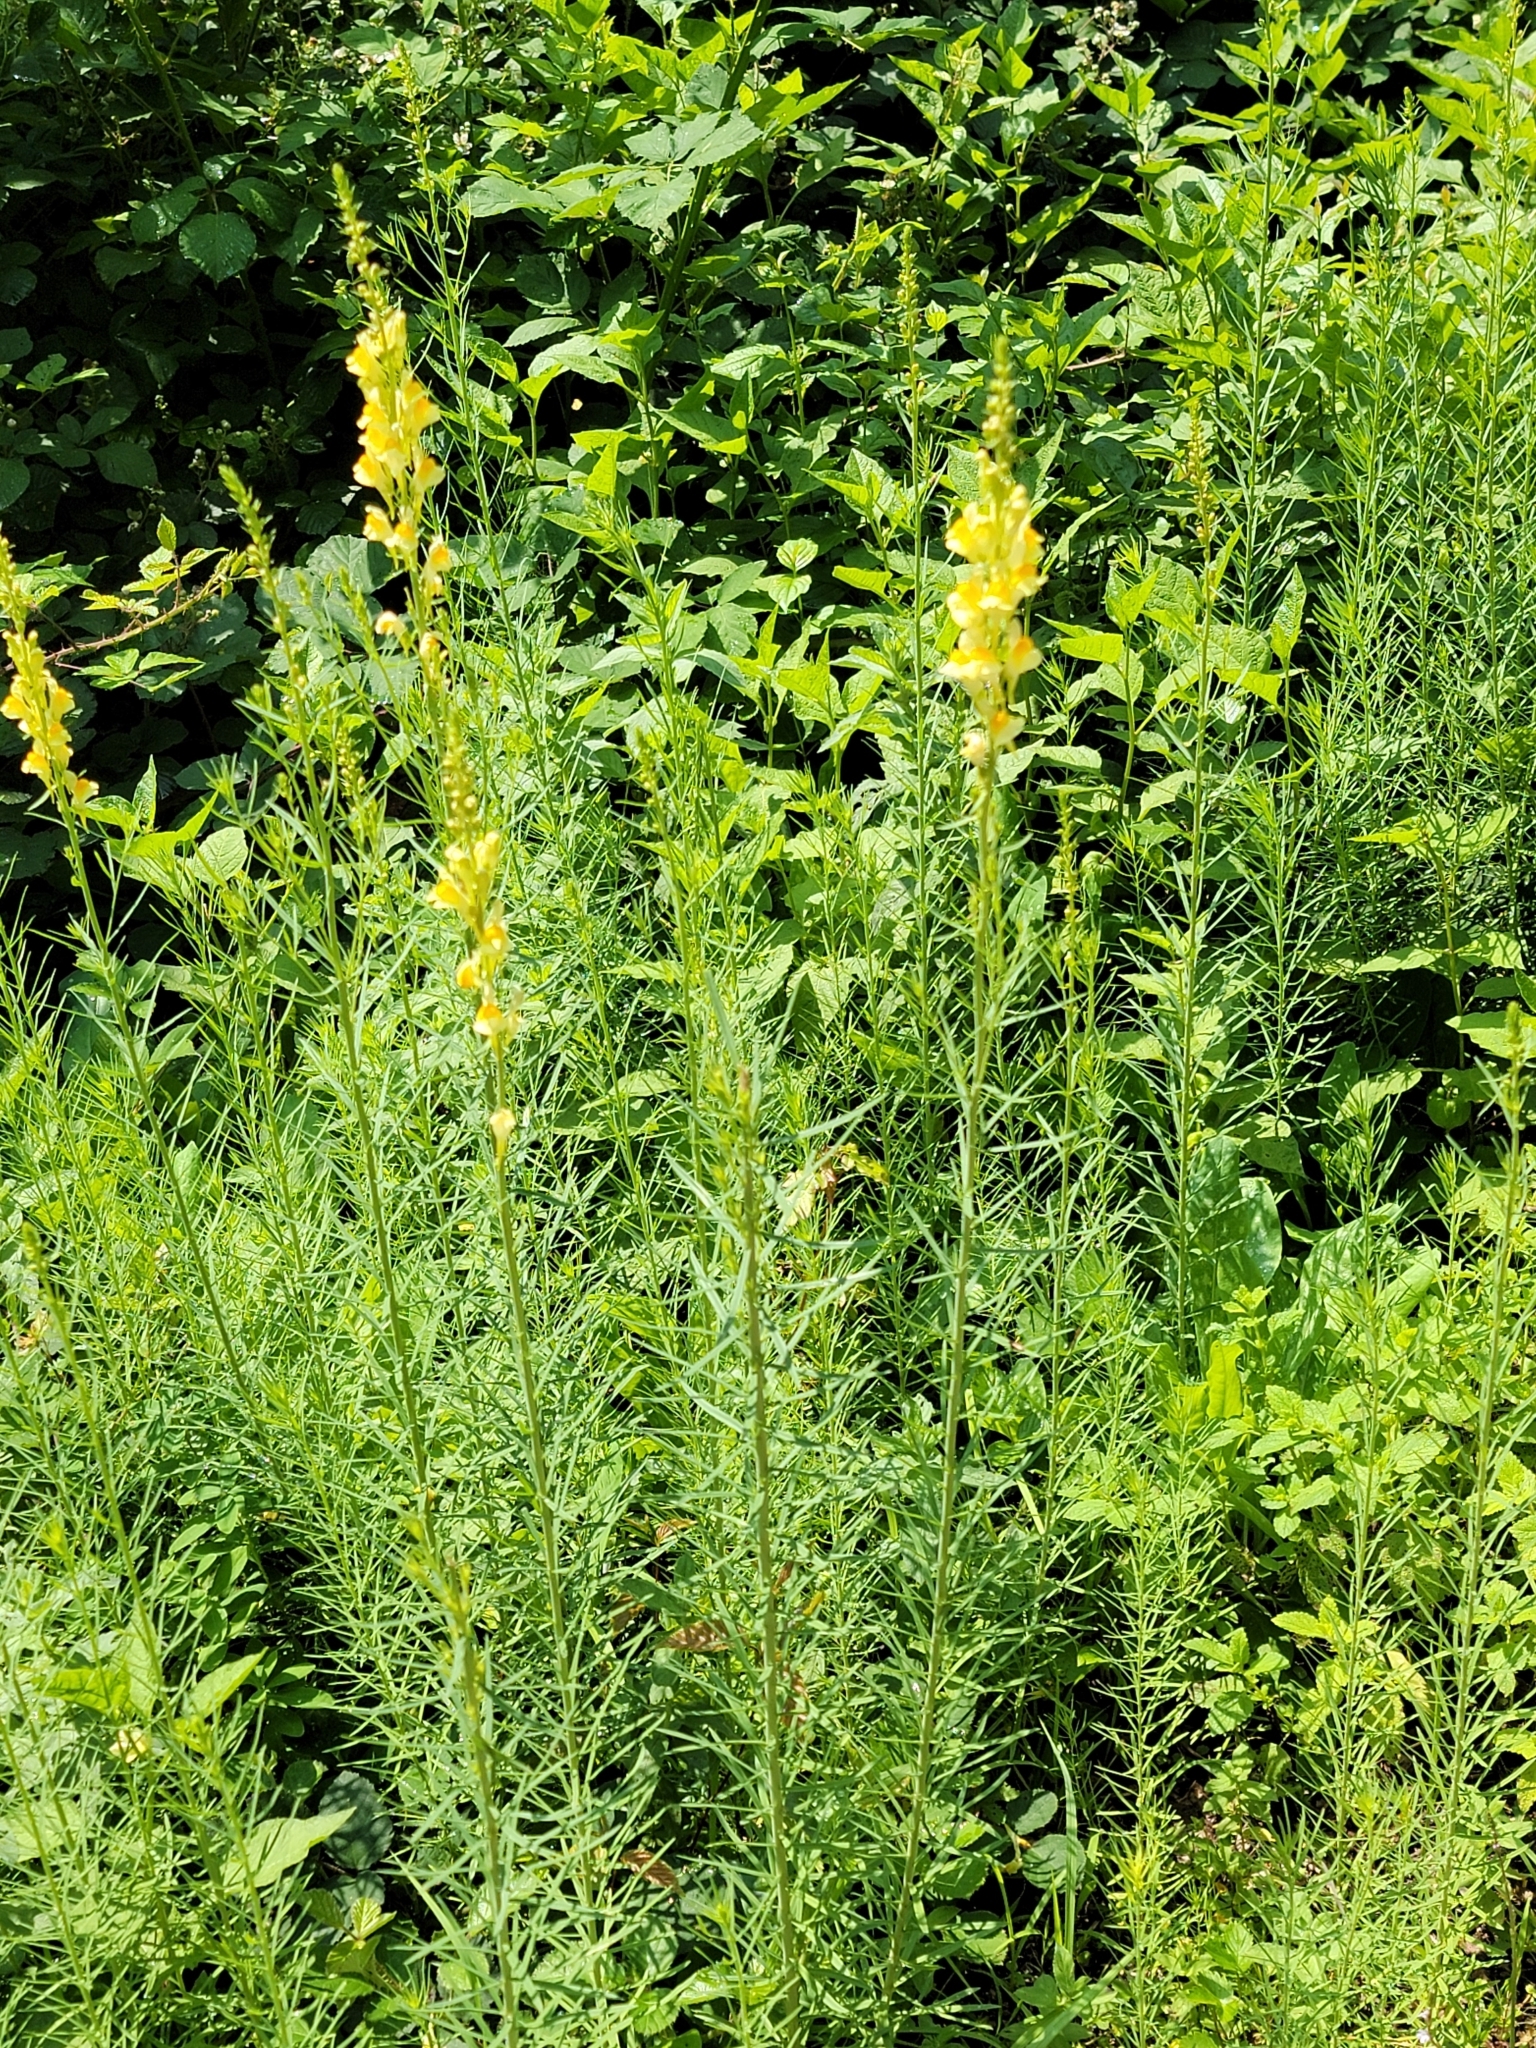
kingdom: Plantae
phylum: Tracheophyta
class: Magnoliopsida
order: Lamiales
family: Plantaginaceae
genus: Linaria
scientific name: Linaria vulgaris
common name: Butter and eggs
